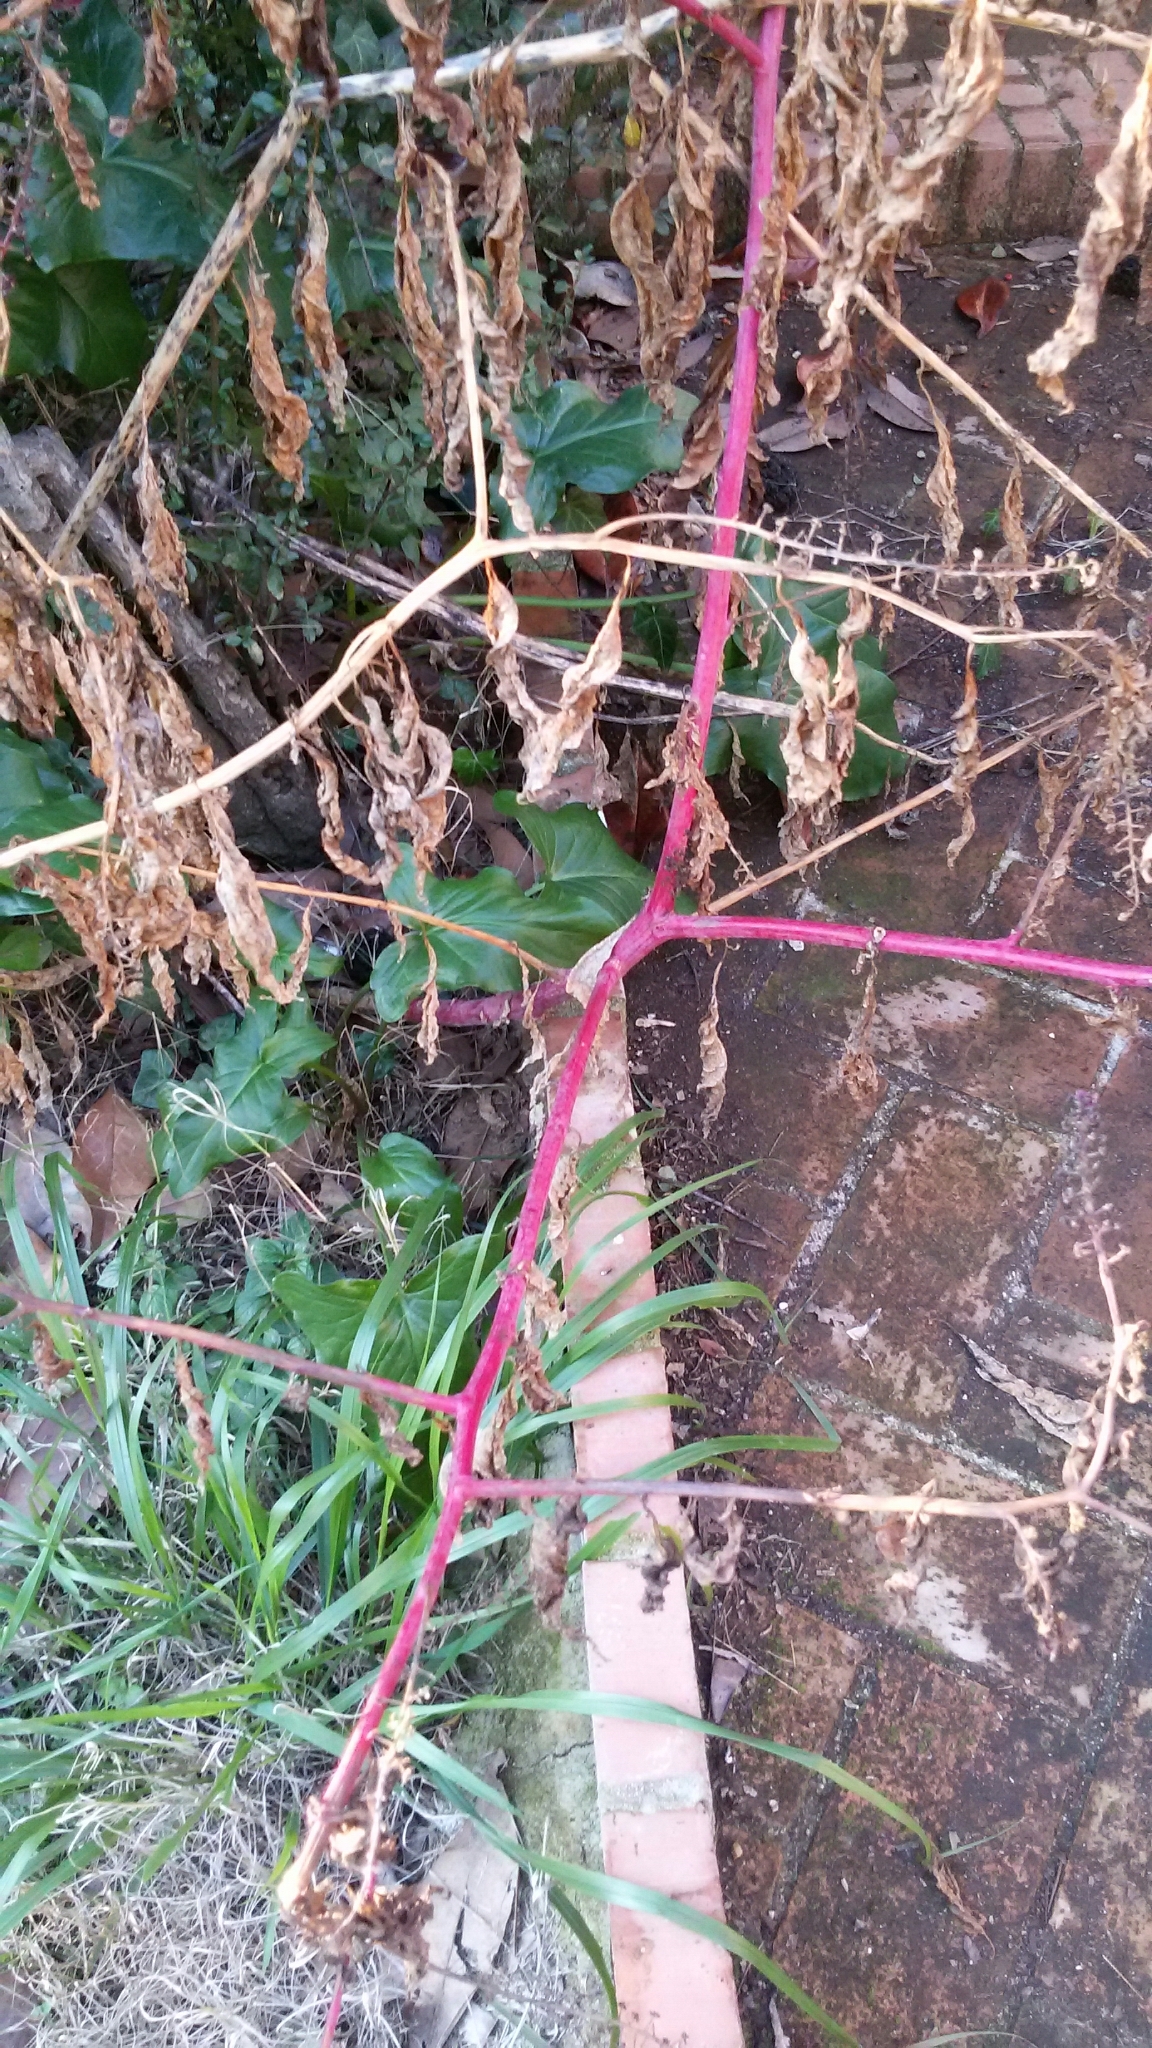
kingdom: Plantae
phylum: Tracheophyta
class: Magnoliopsida
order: Caryophyllales
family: Phytolaccaceae
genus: Phytolacca
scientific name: Phytolacca americana
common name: American pokeweed
